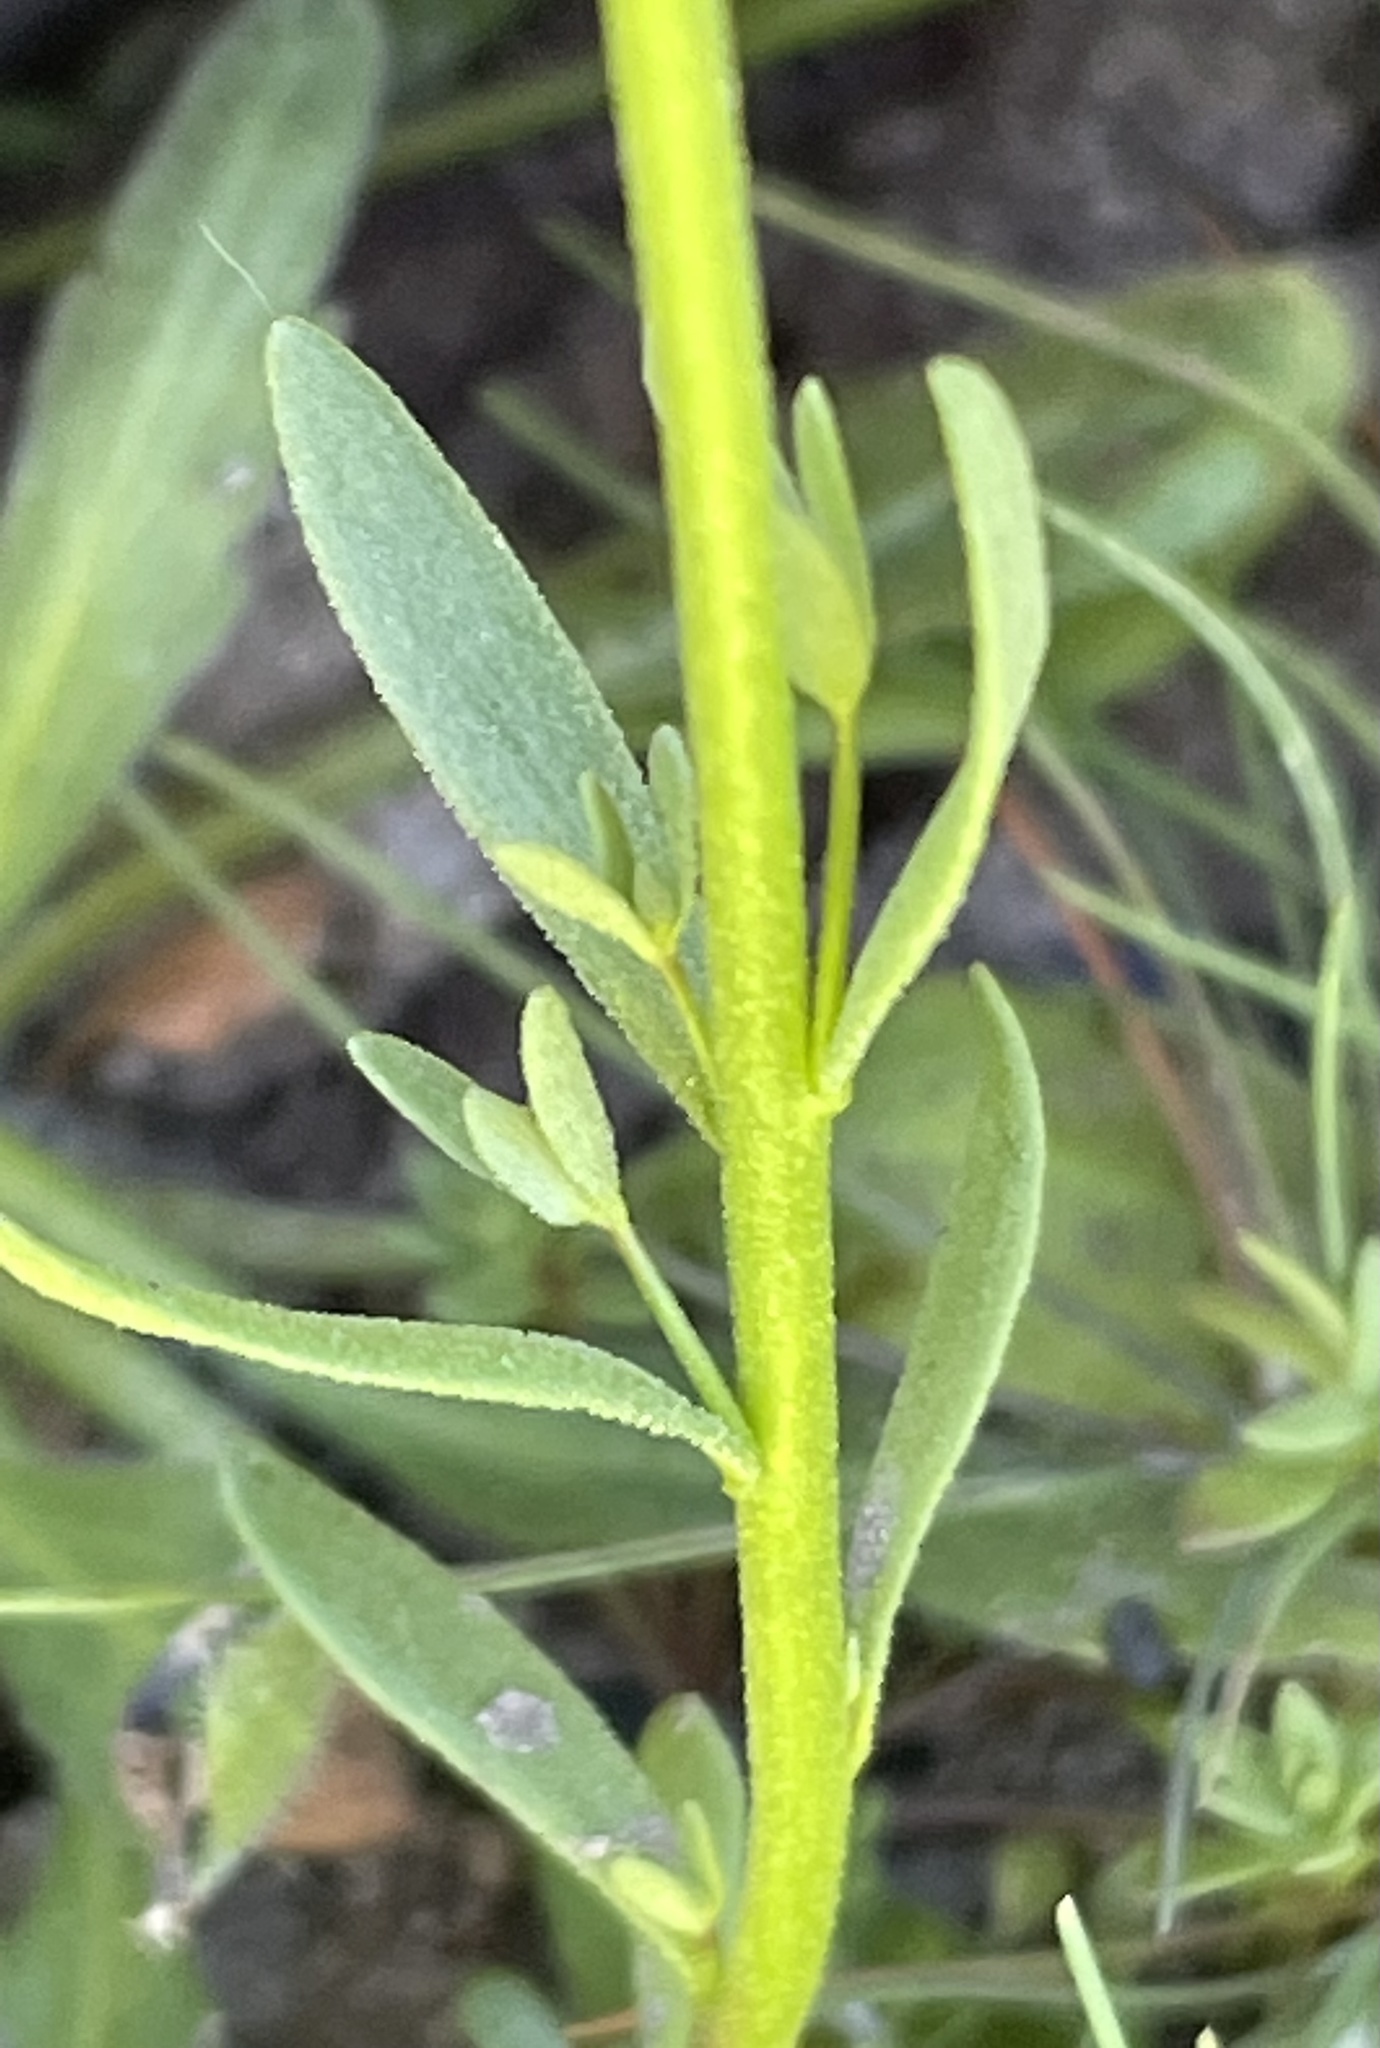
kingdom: Plantae
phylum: Tracheophyta
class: Magnoliopsida
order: Lamiales
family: Plantaginaceae
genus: Nuttallanthus
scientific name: Nuttallanthus texanus
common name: Texas toadflax
